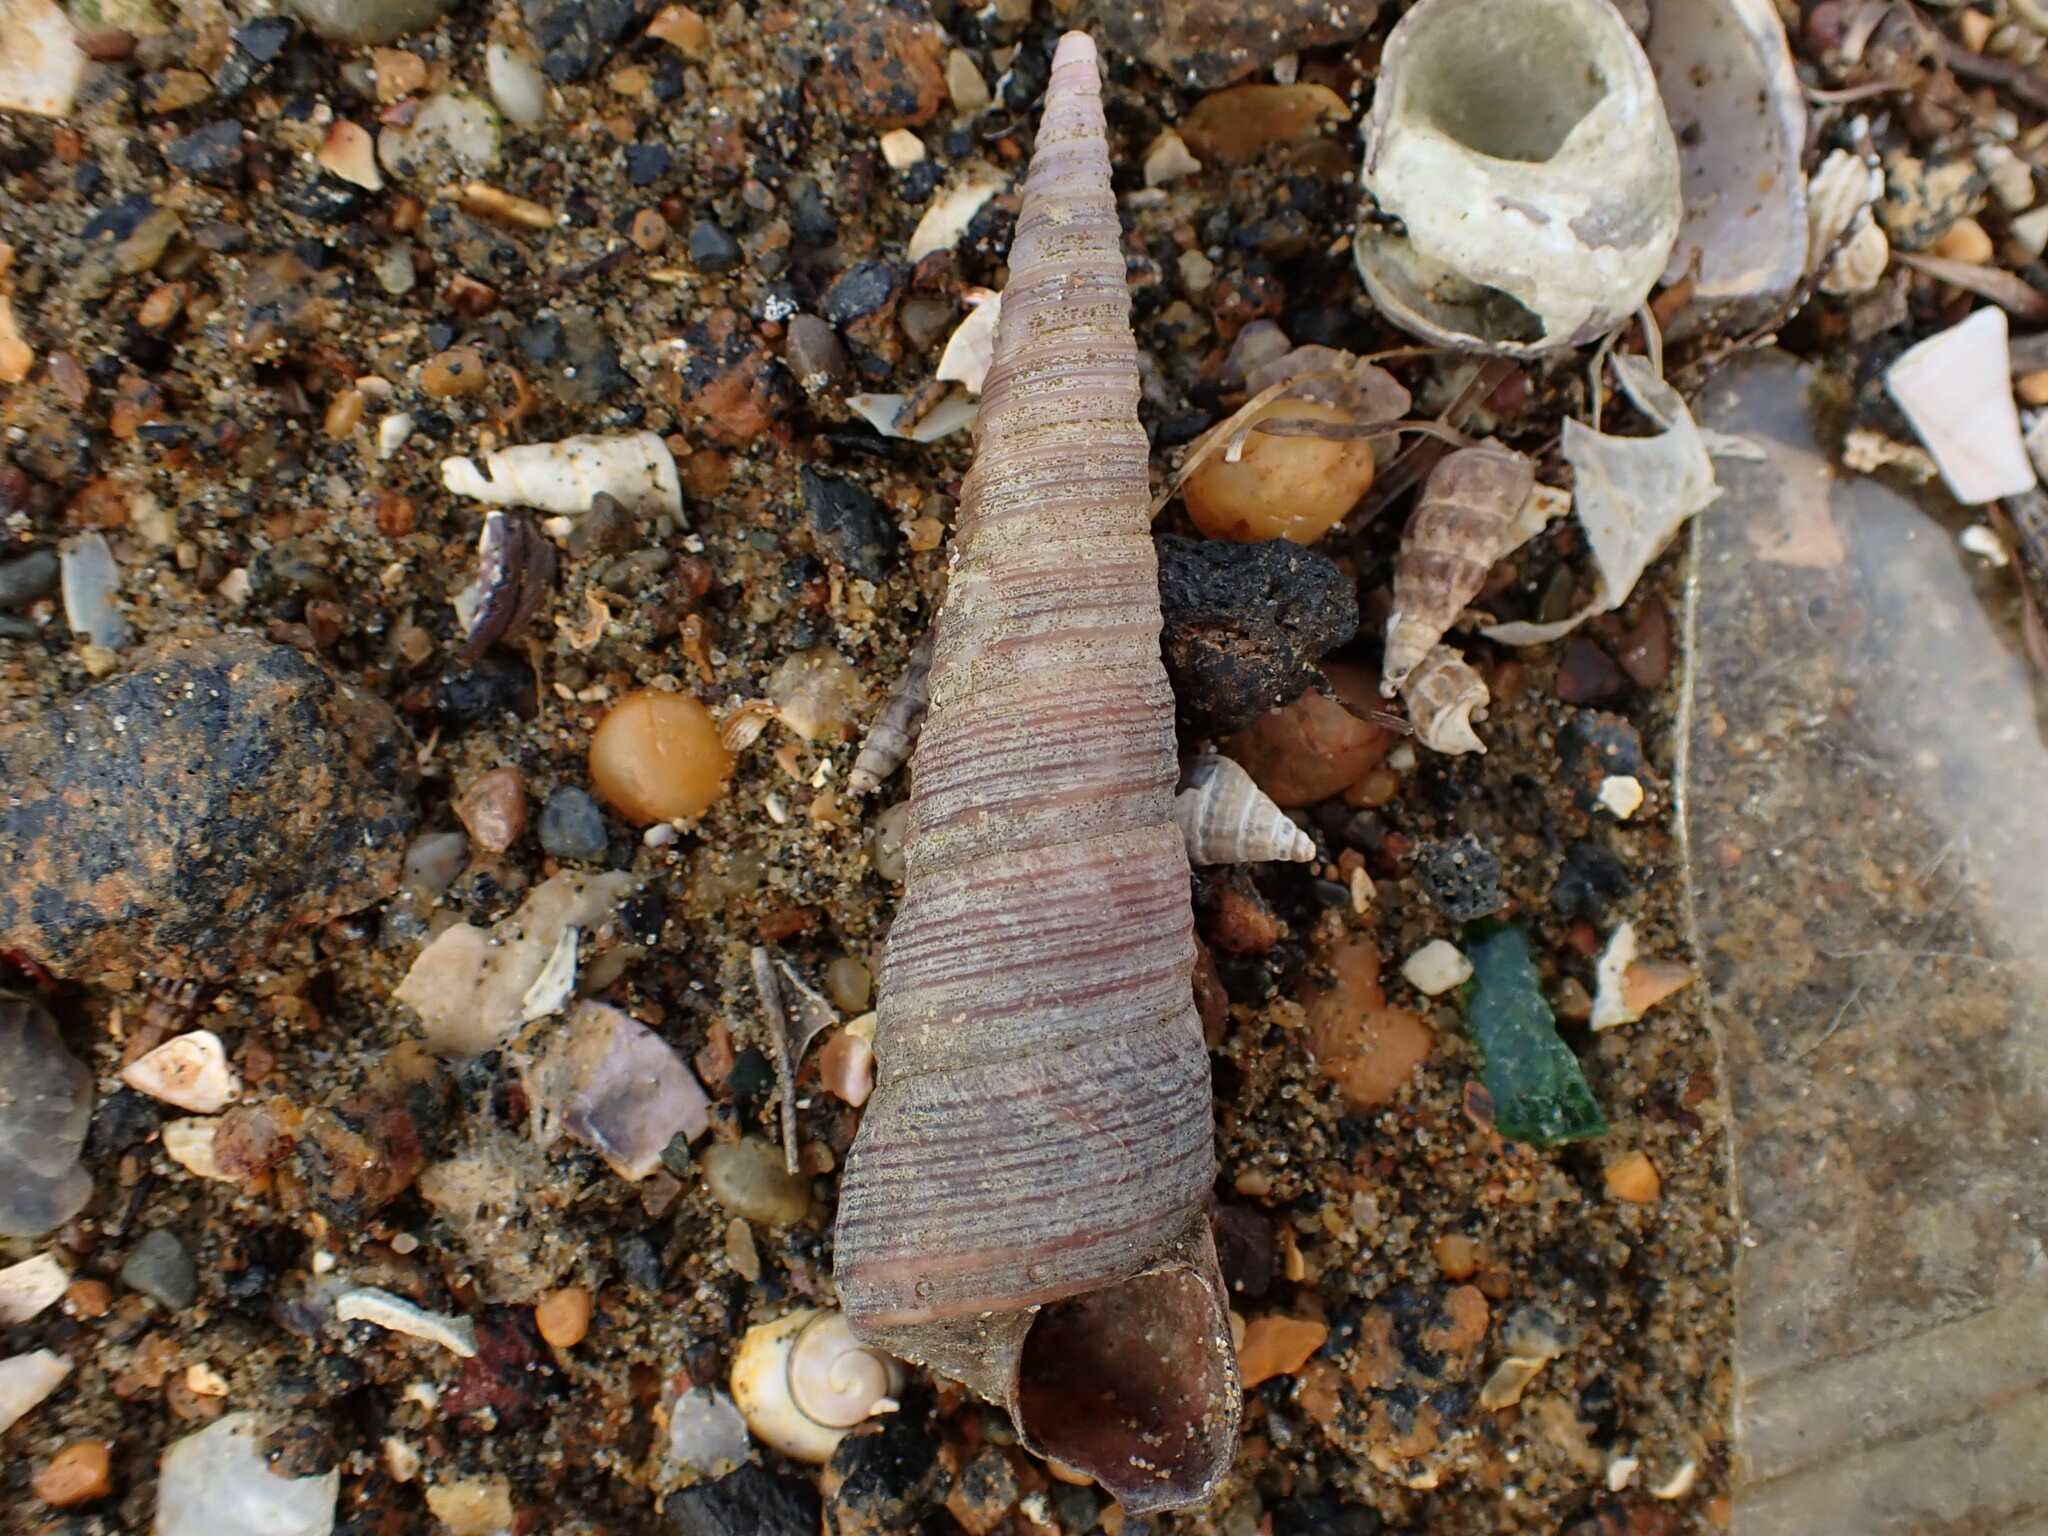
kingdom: Animalia
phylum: Mollusca
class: Gastropoda
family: Turritellidae
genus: Maoricolpus
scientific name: Maoricolpus roseus
